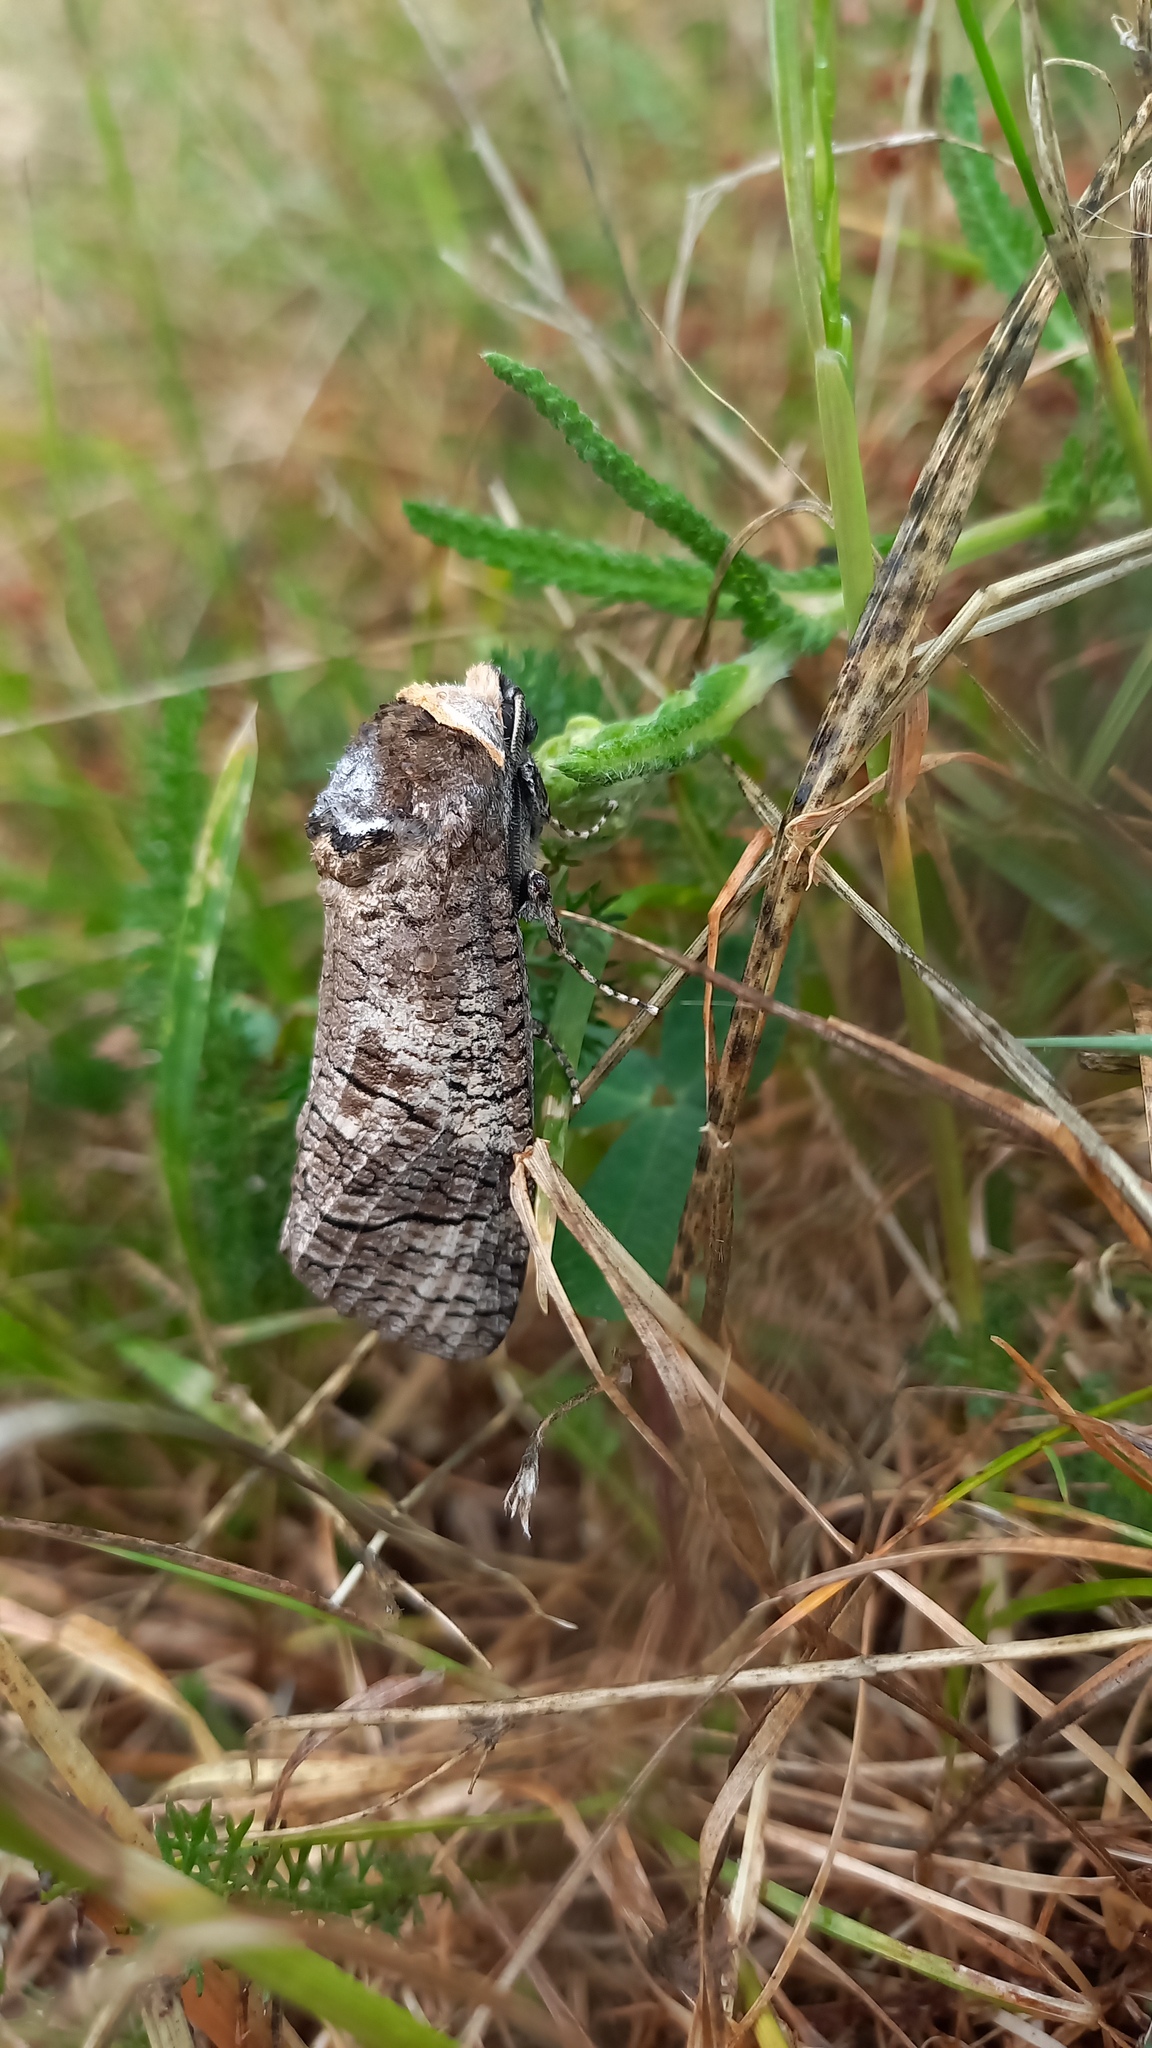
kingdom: Animalia
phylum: Arthropoda
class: Insecta
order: Lepidoptera
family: Cossidae
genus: Cossus
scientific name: Cossus cossus
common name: Goat moth
